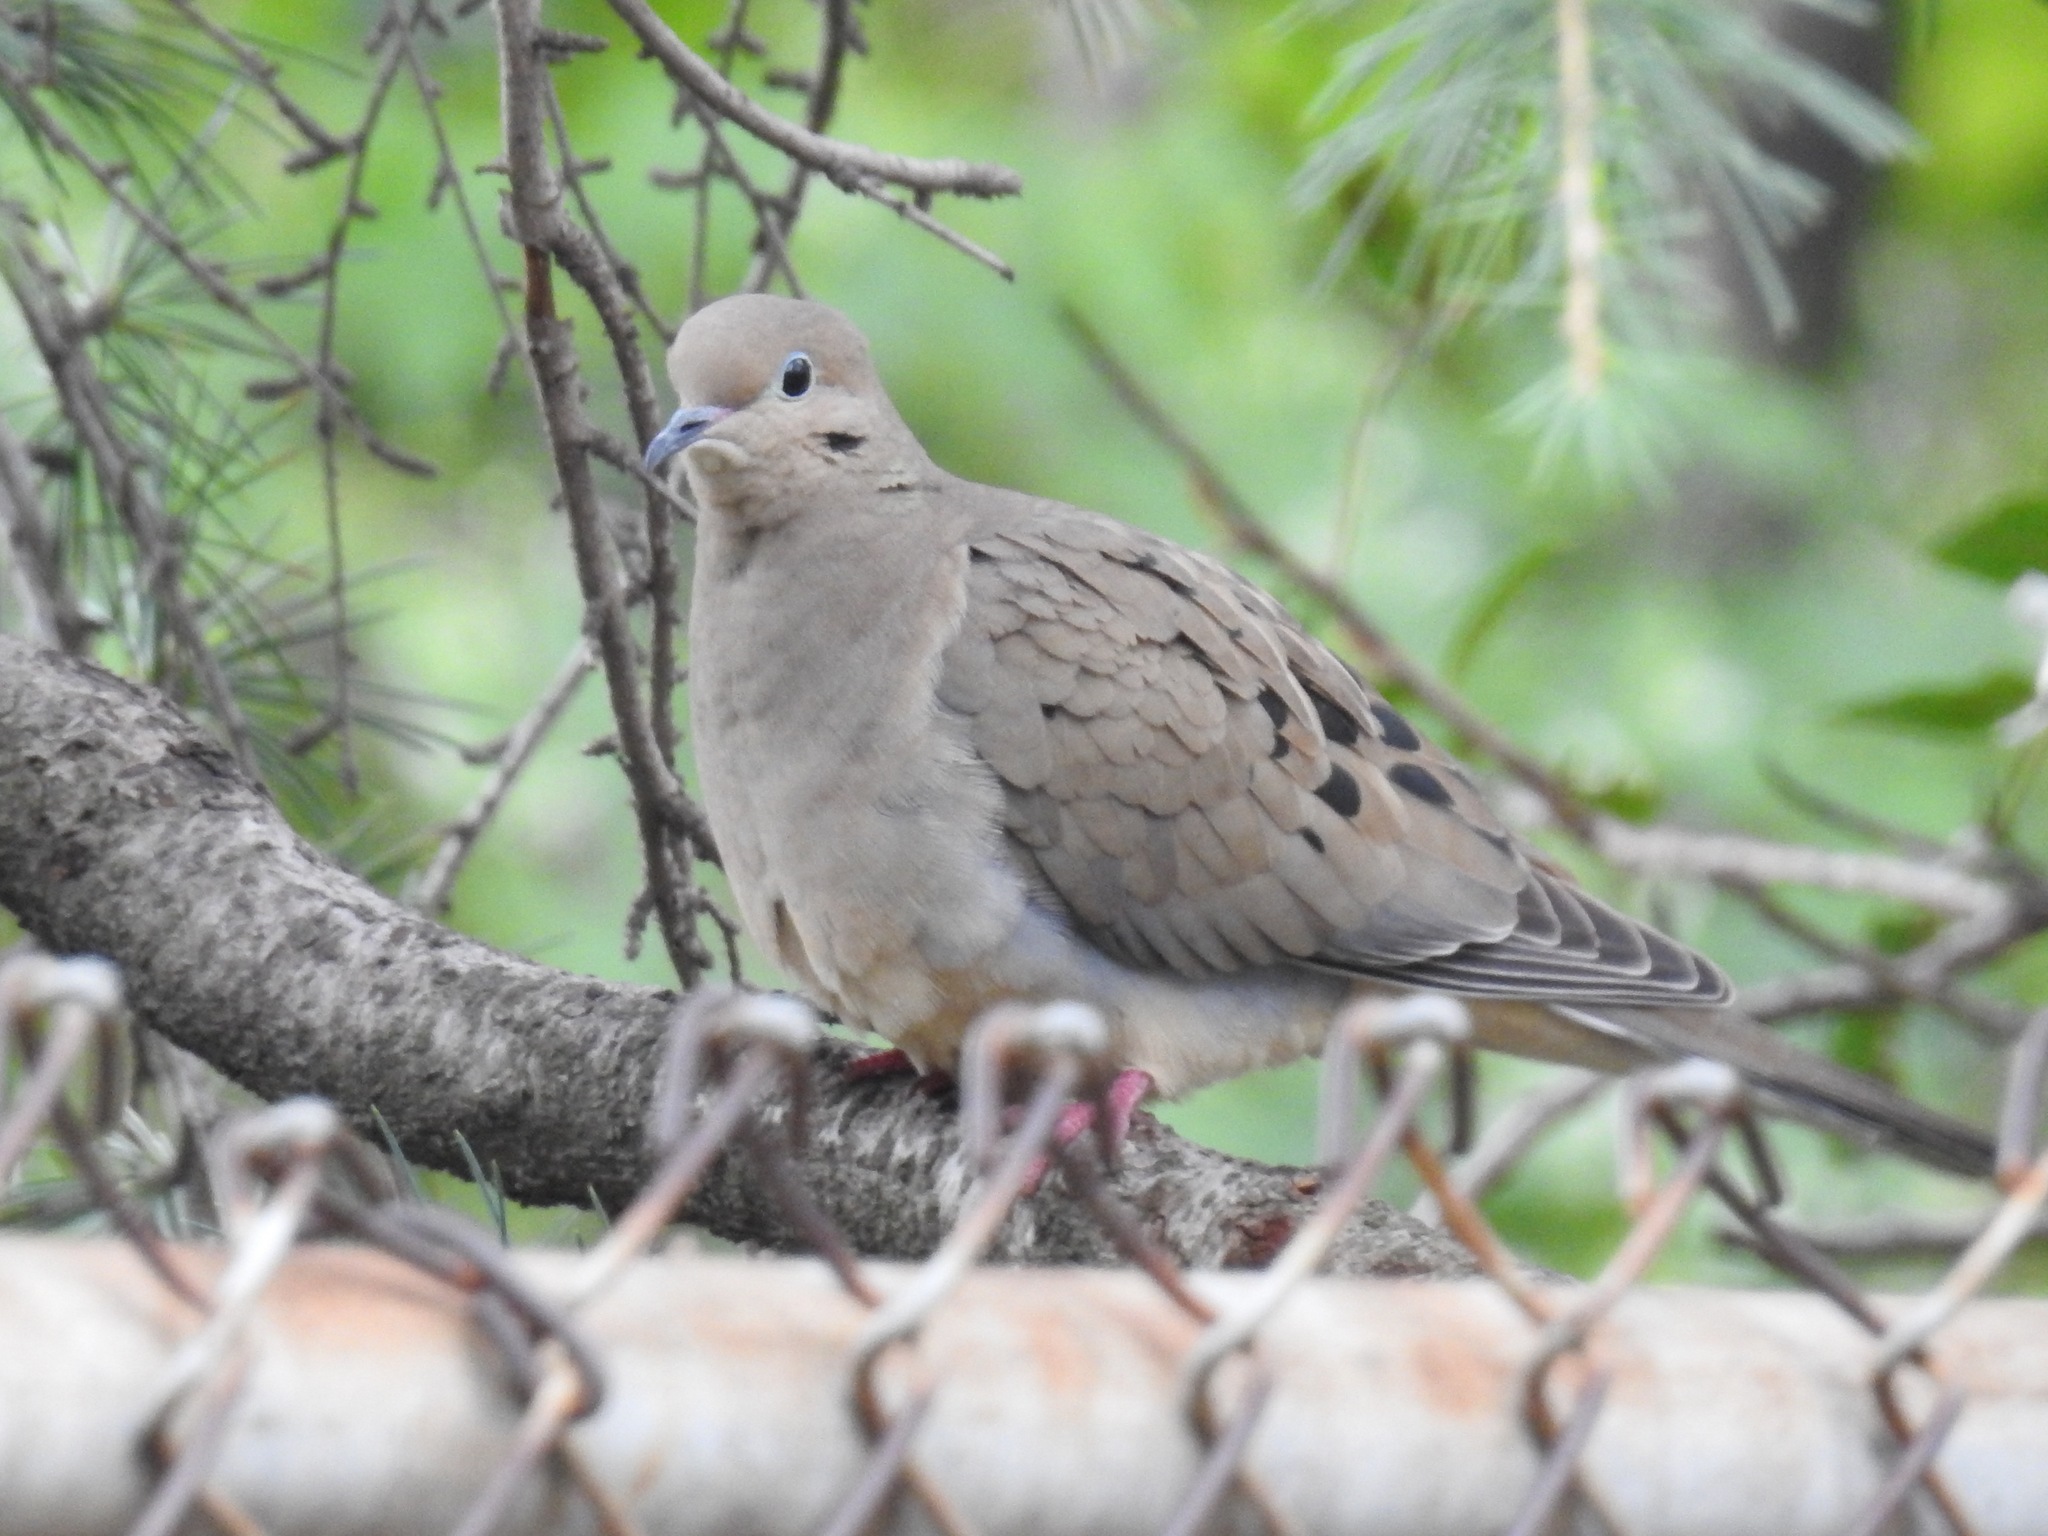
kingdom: Animalia
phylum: Chordata
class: Aves
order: Columbiformes
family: Columbidae
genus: Zenaida
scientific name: Zenaida macroura
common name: Mourning dove
